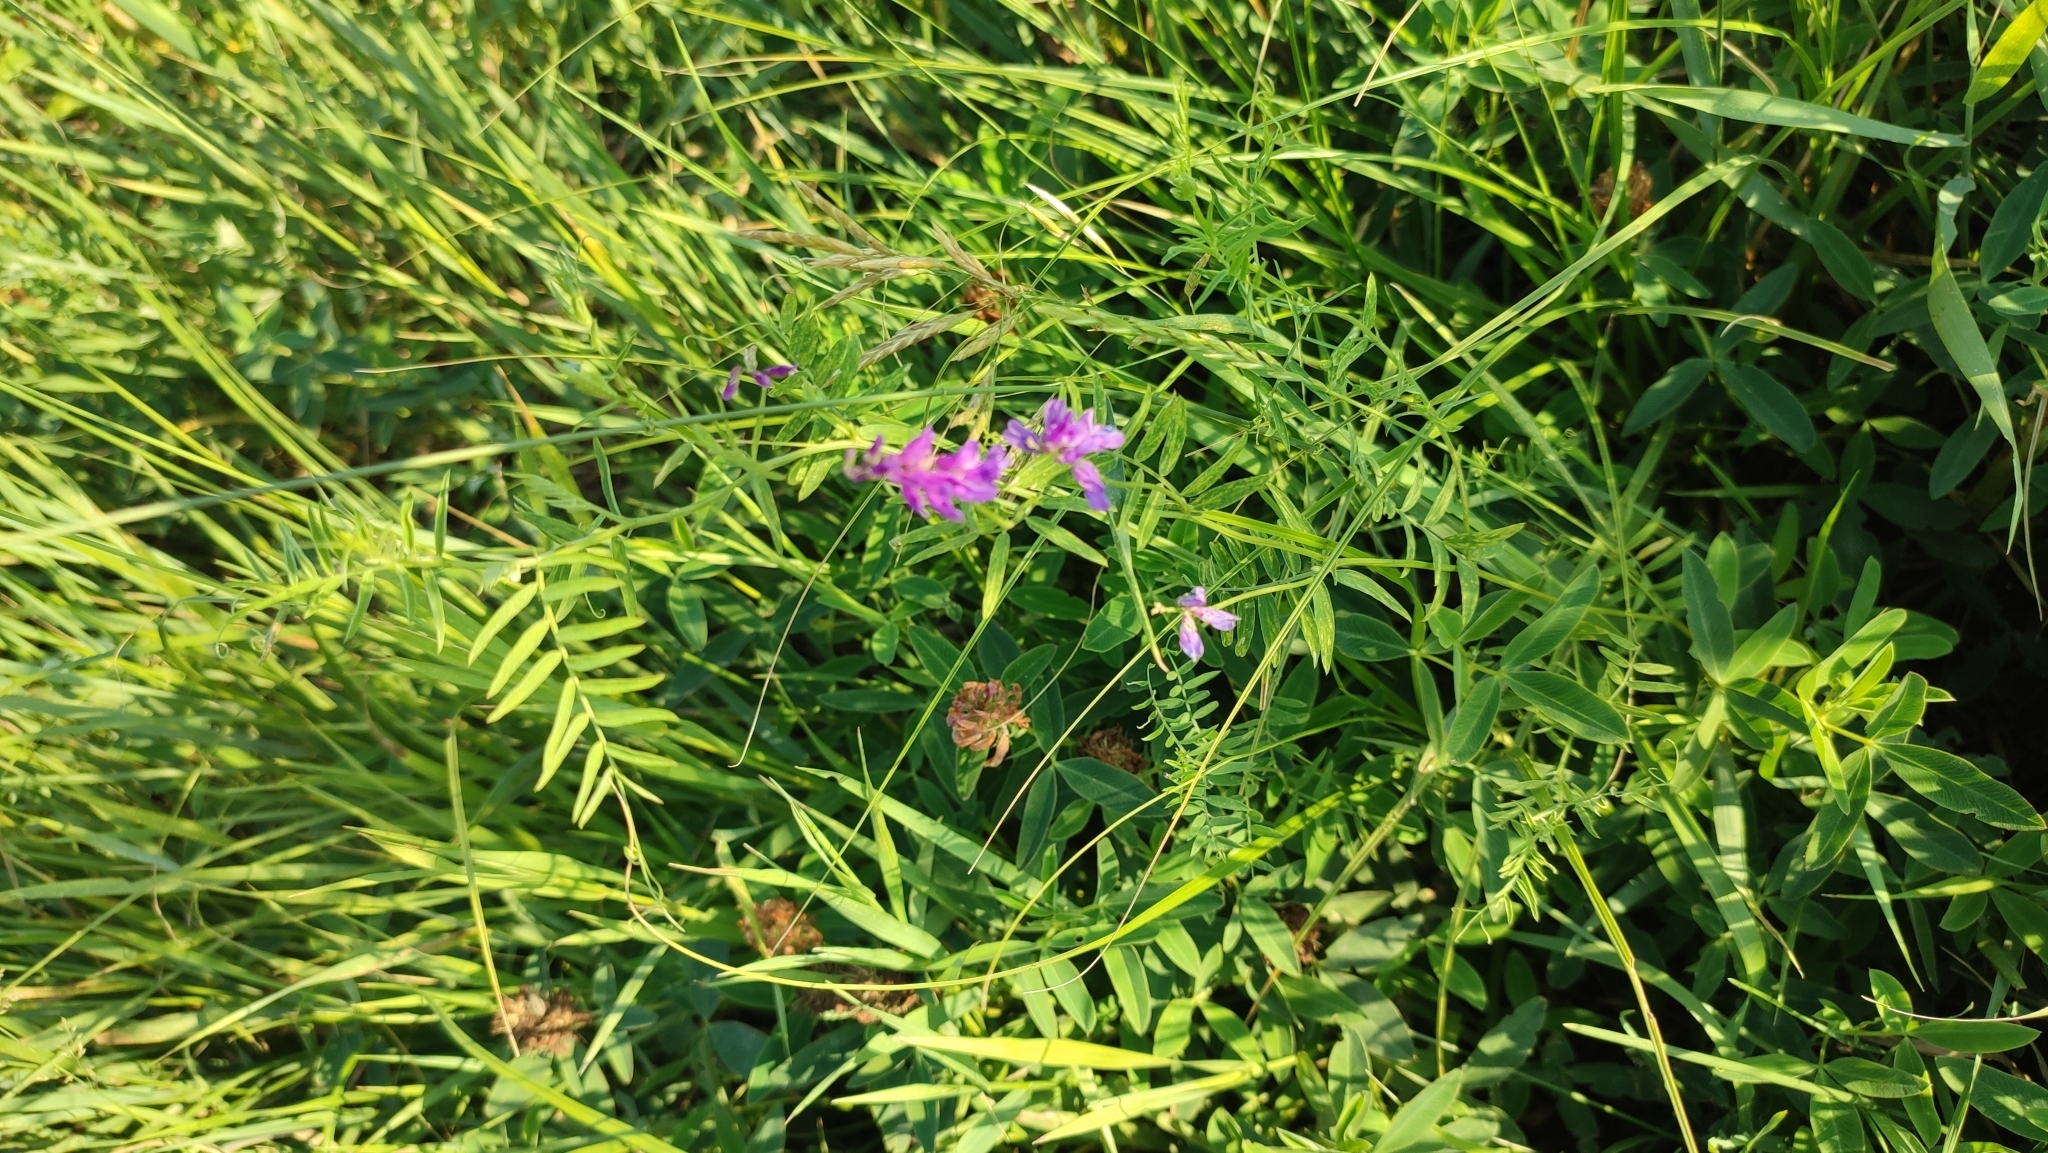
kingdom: Plantae
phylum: Tracheophyta
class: Magnoliopsida
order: Fabales
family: Fabaceae
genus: Vicia
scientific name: Vicia cracca
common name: Bird vetch
